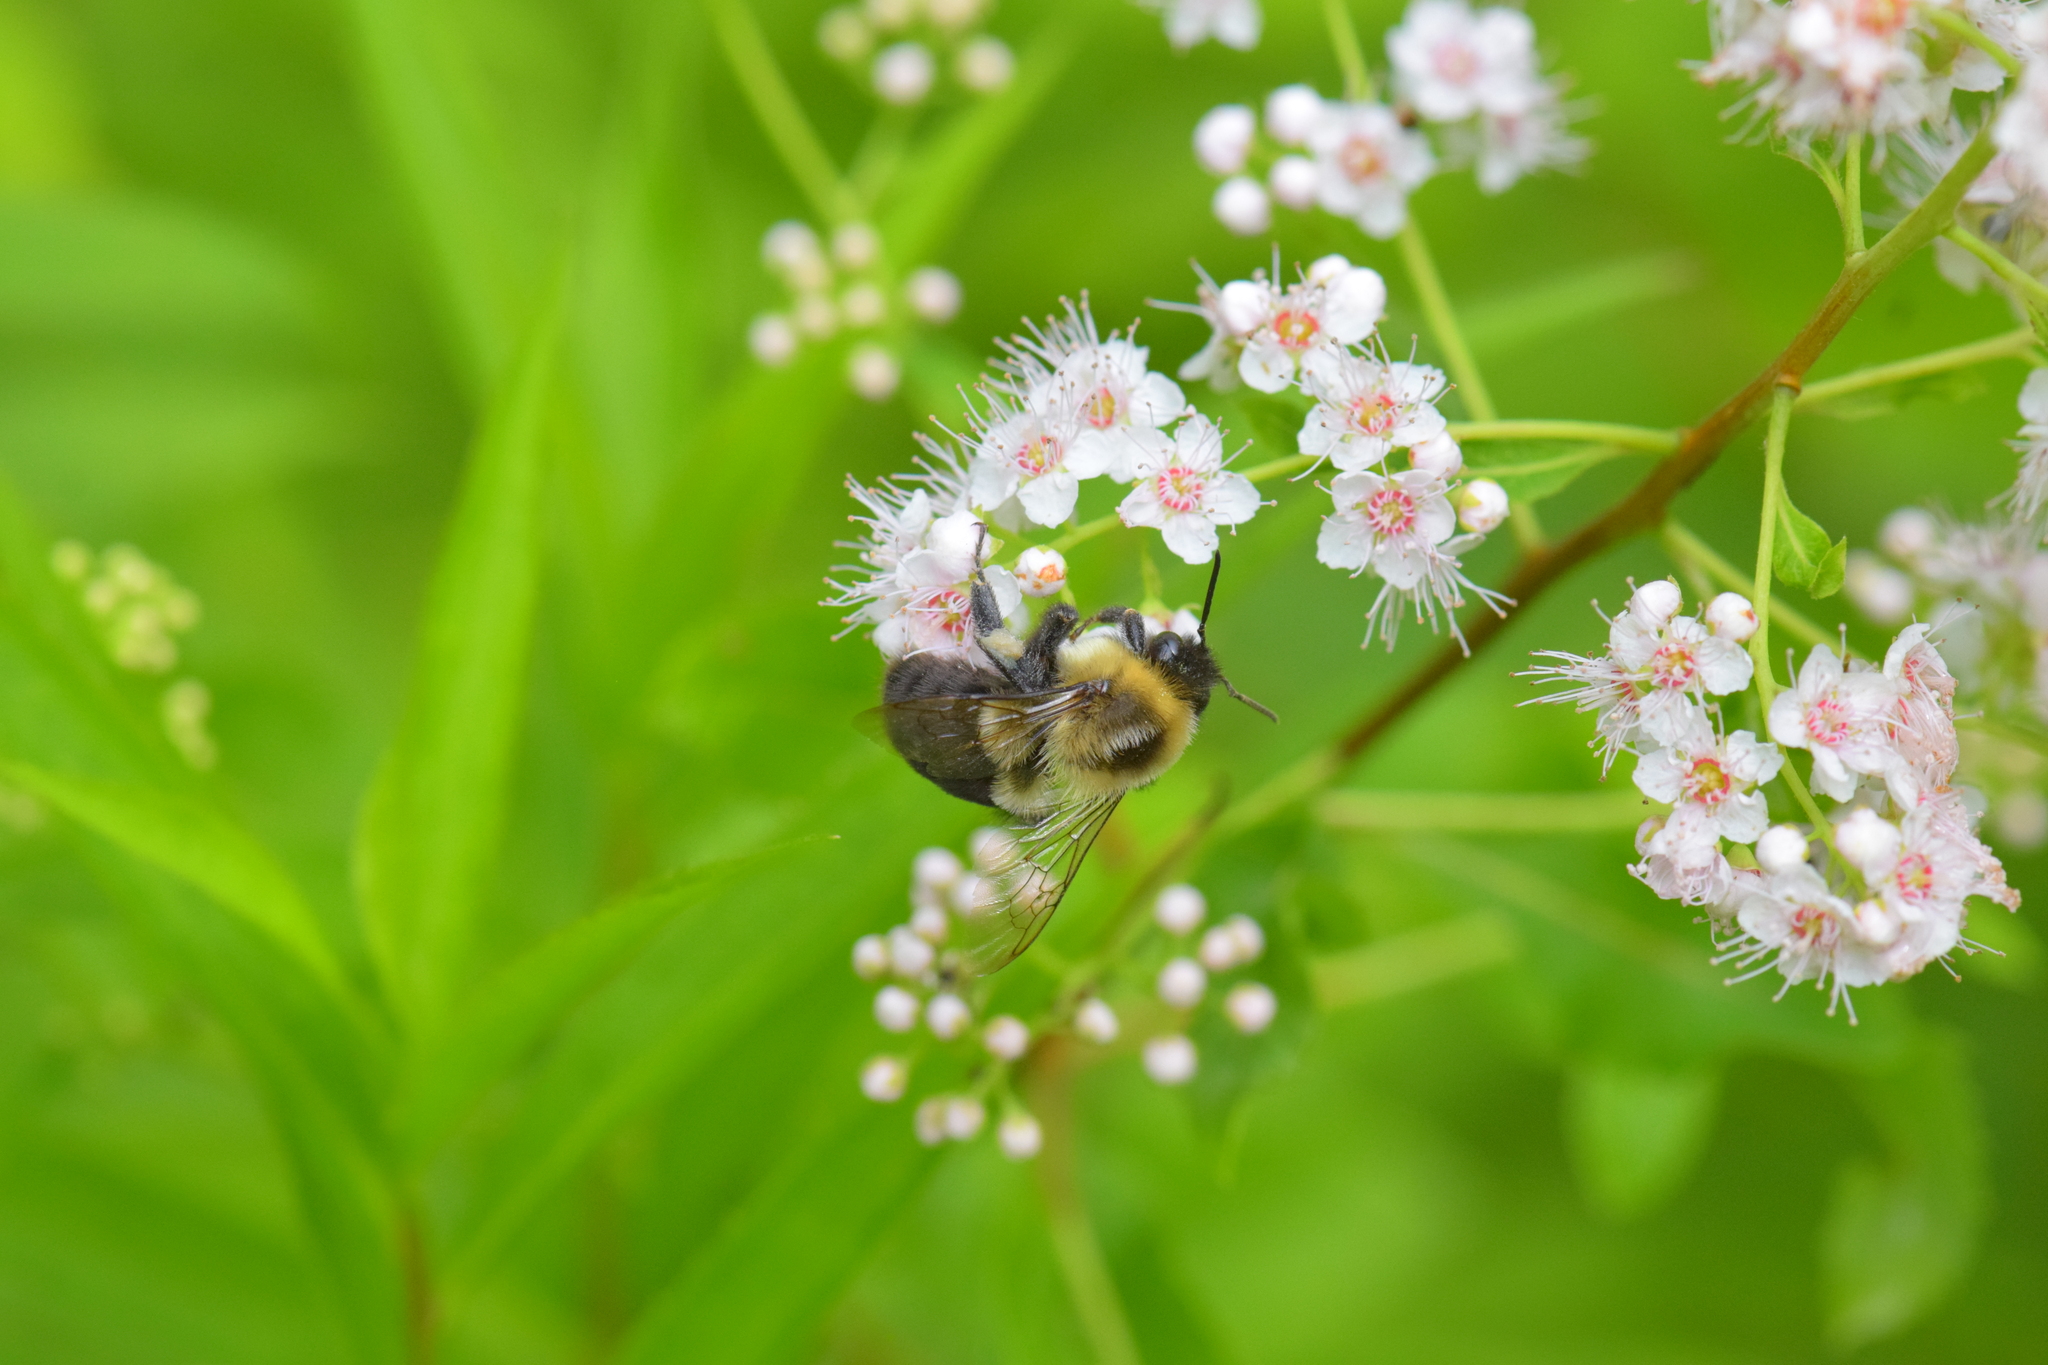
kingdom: Animalia
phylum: Arthropoda
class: Insecta
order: Hymenoptera
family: Apidae
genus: Bombus
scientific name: Bombus impatiens
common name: Common eastern bumble bee
